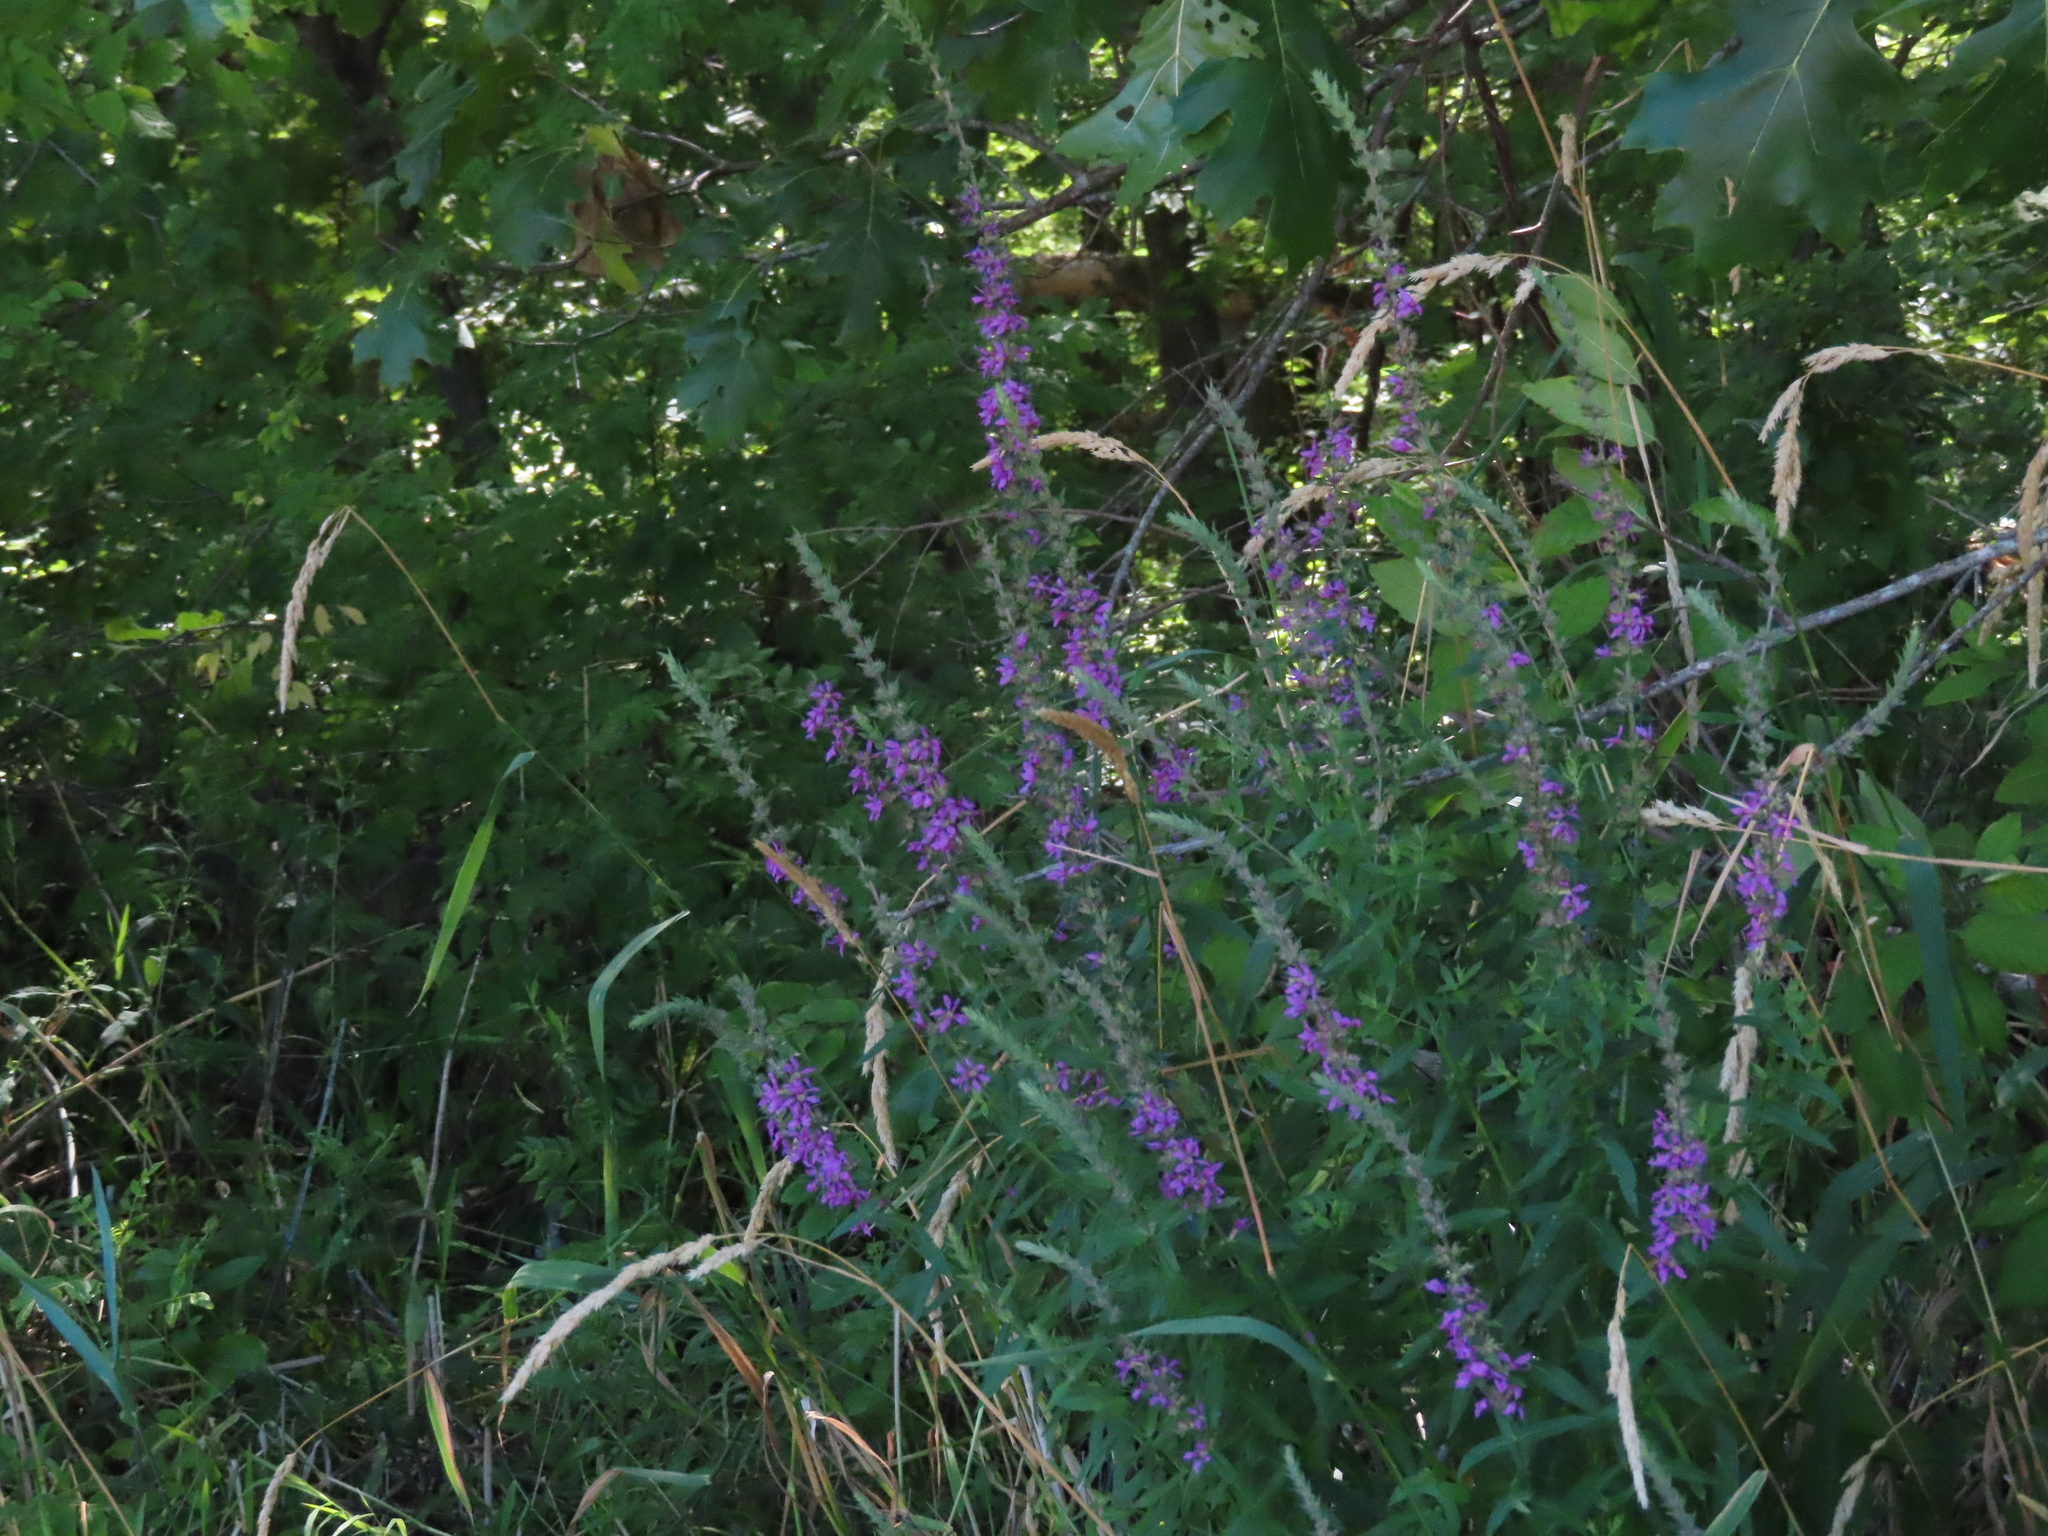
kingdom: Plantae
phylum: Tracheophyta
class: Magnoliopsida
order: Myrtales
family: Lythraceae
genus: Lythrum
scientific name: Lythrum salicaria
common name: Purple loosestrife
